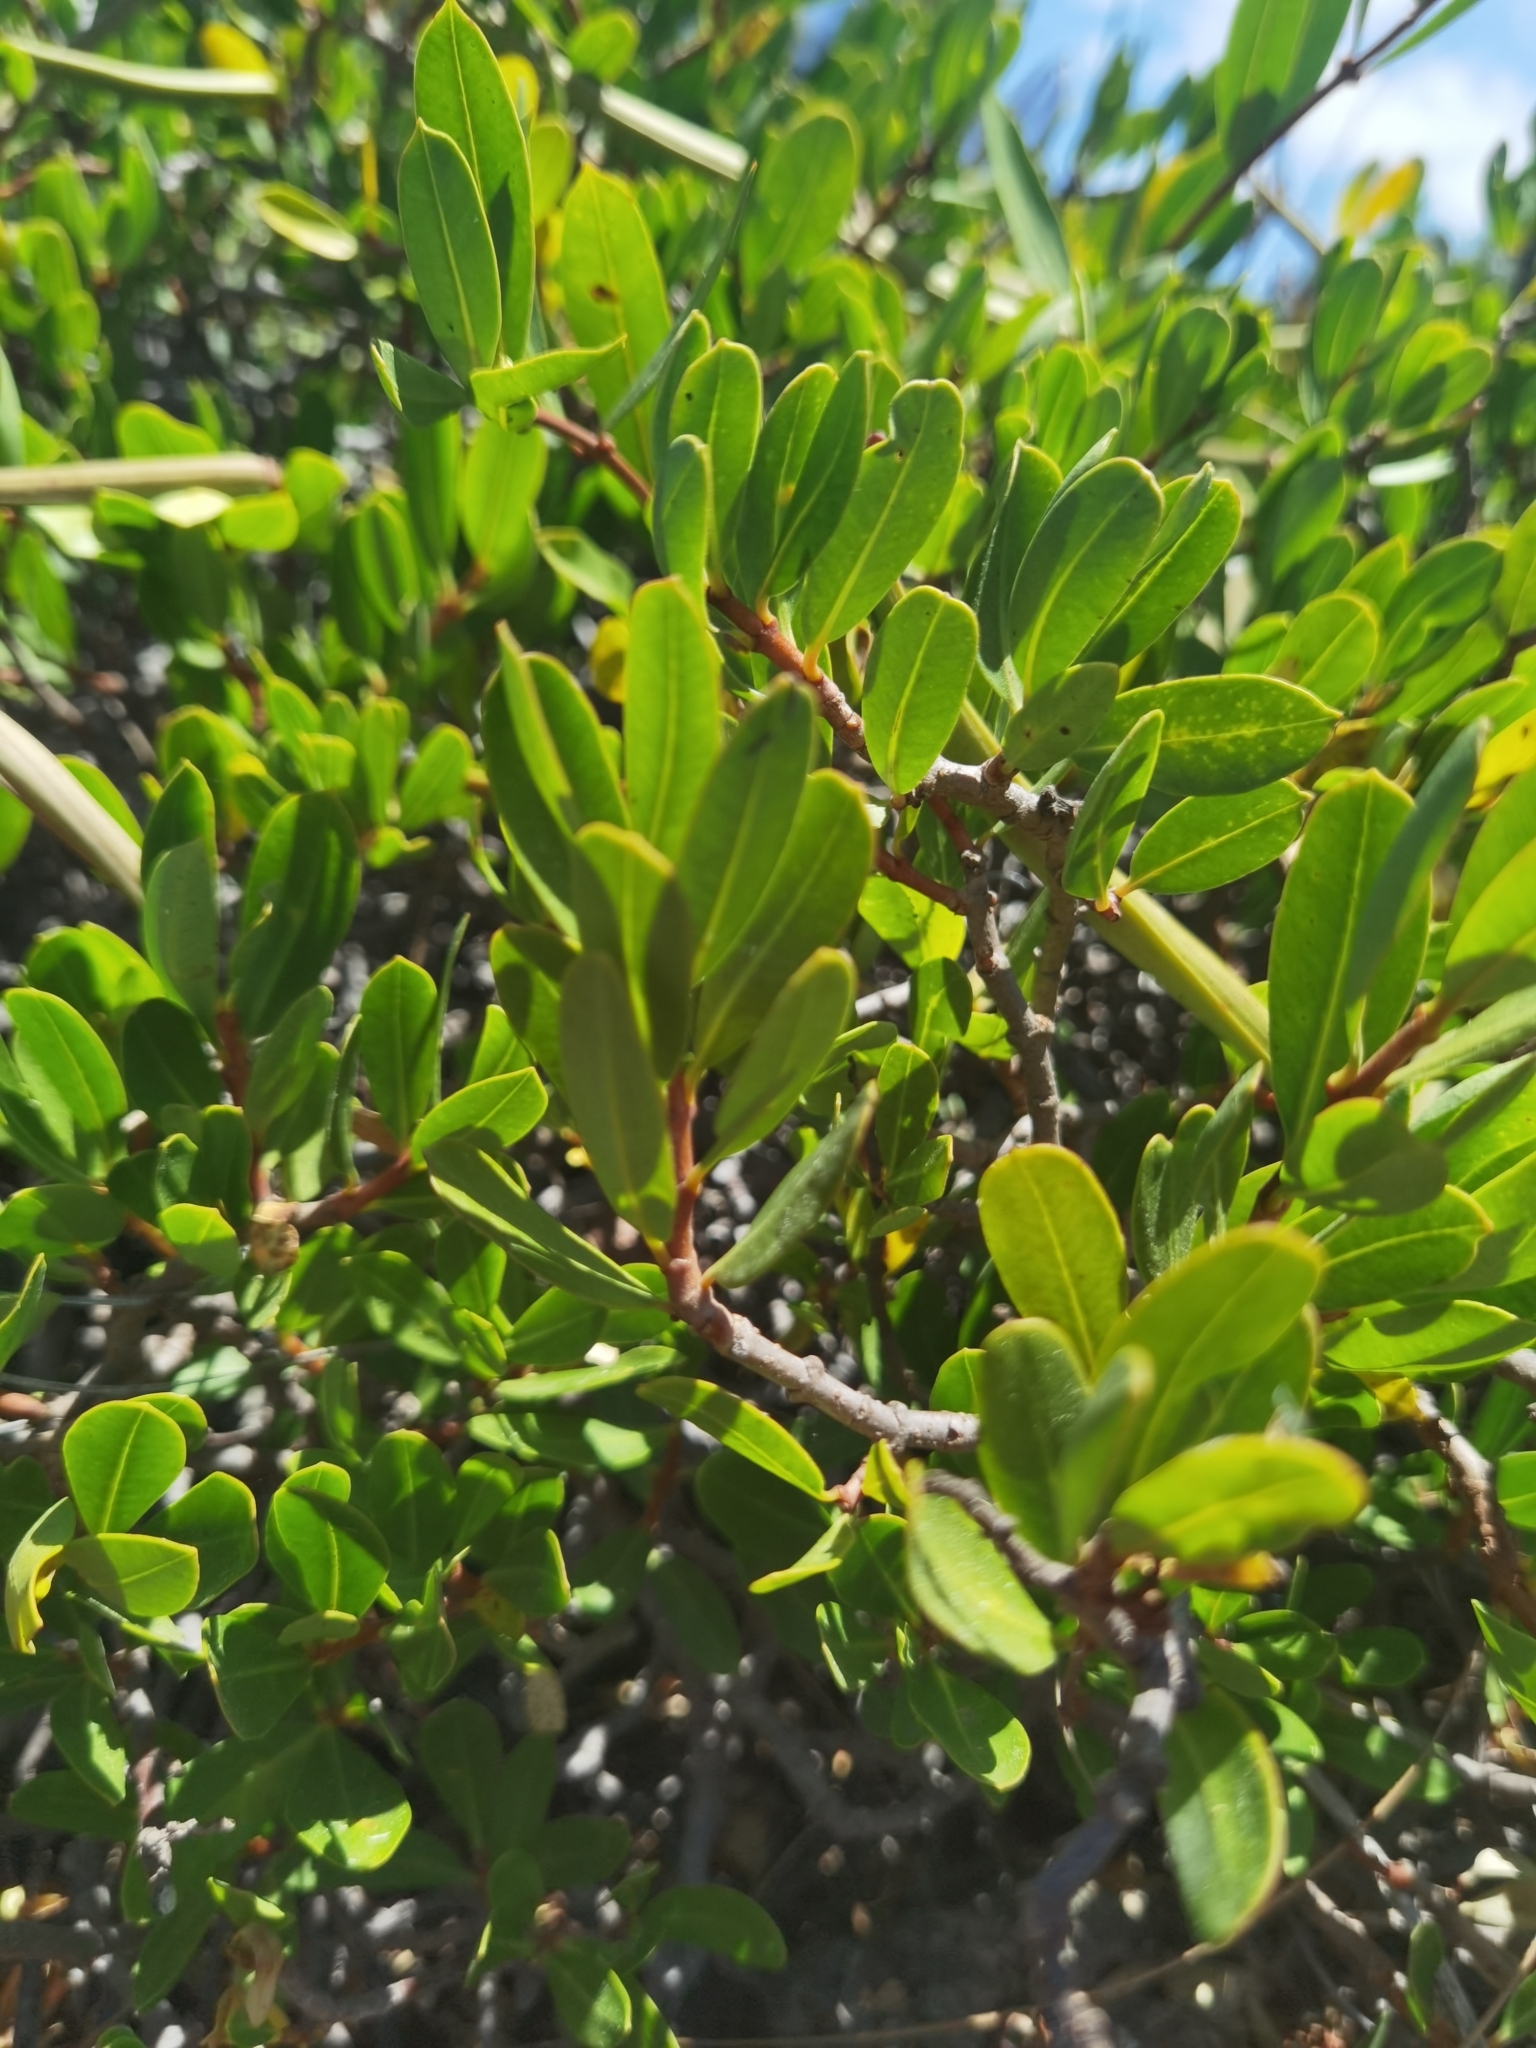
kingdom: Plantae
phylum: Tracheophyta
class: Magnoliopsida
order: Gentianales
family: Apocynaceae
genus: Periploca
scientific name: Periploca laevigata
